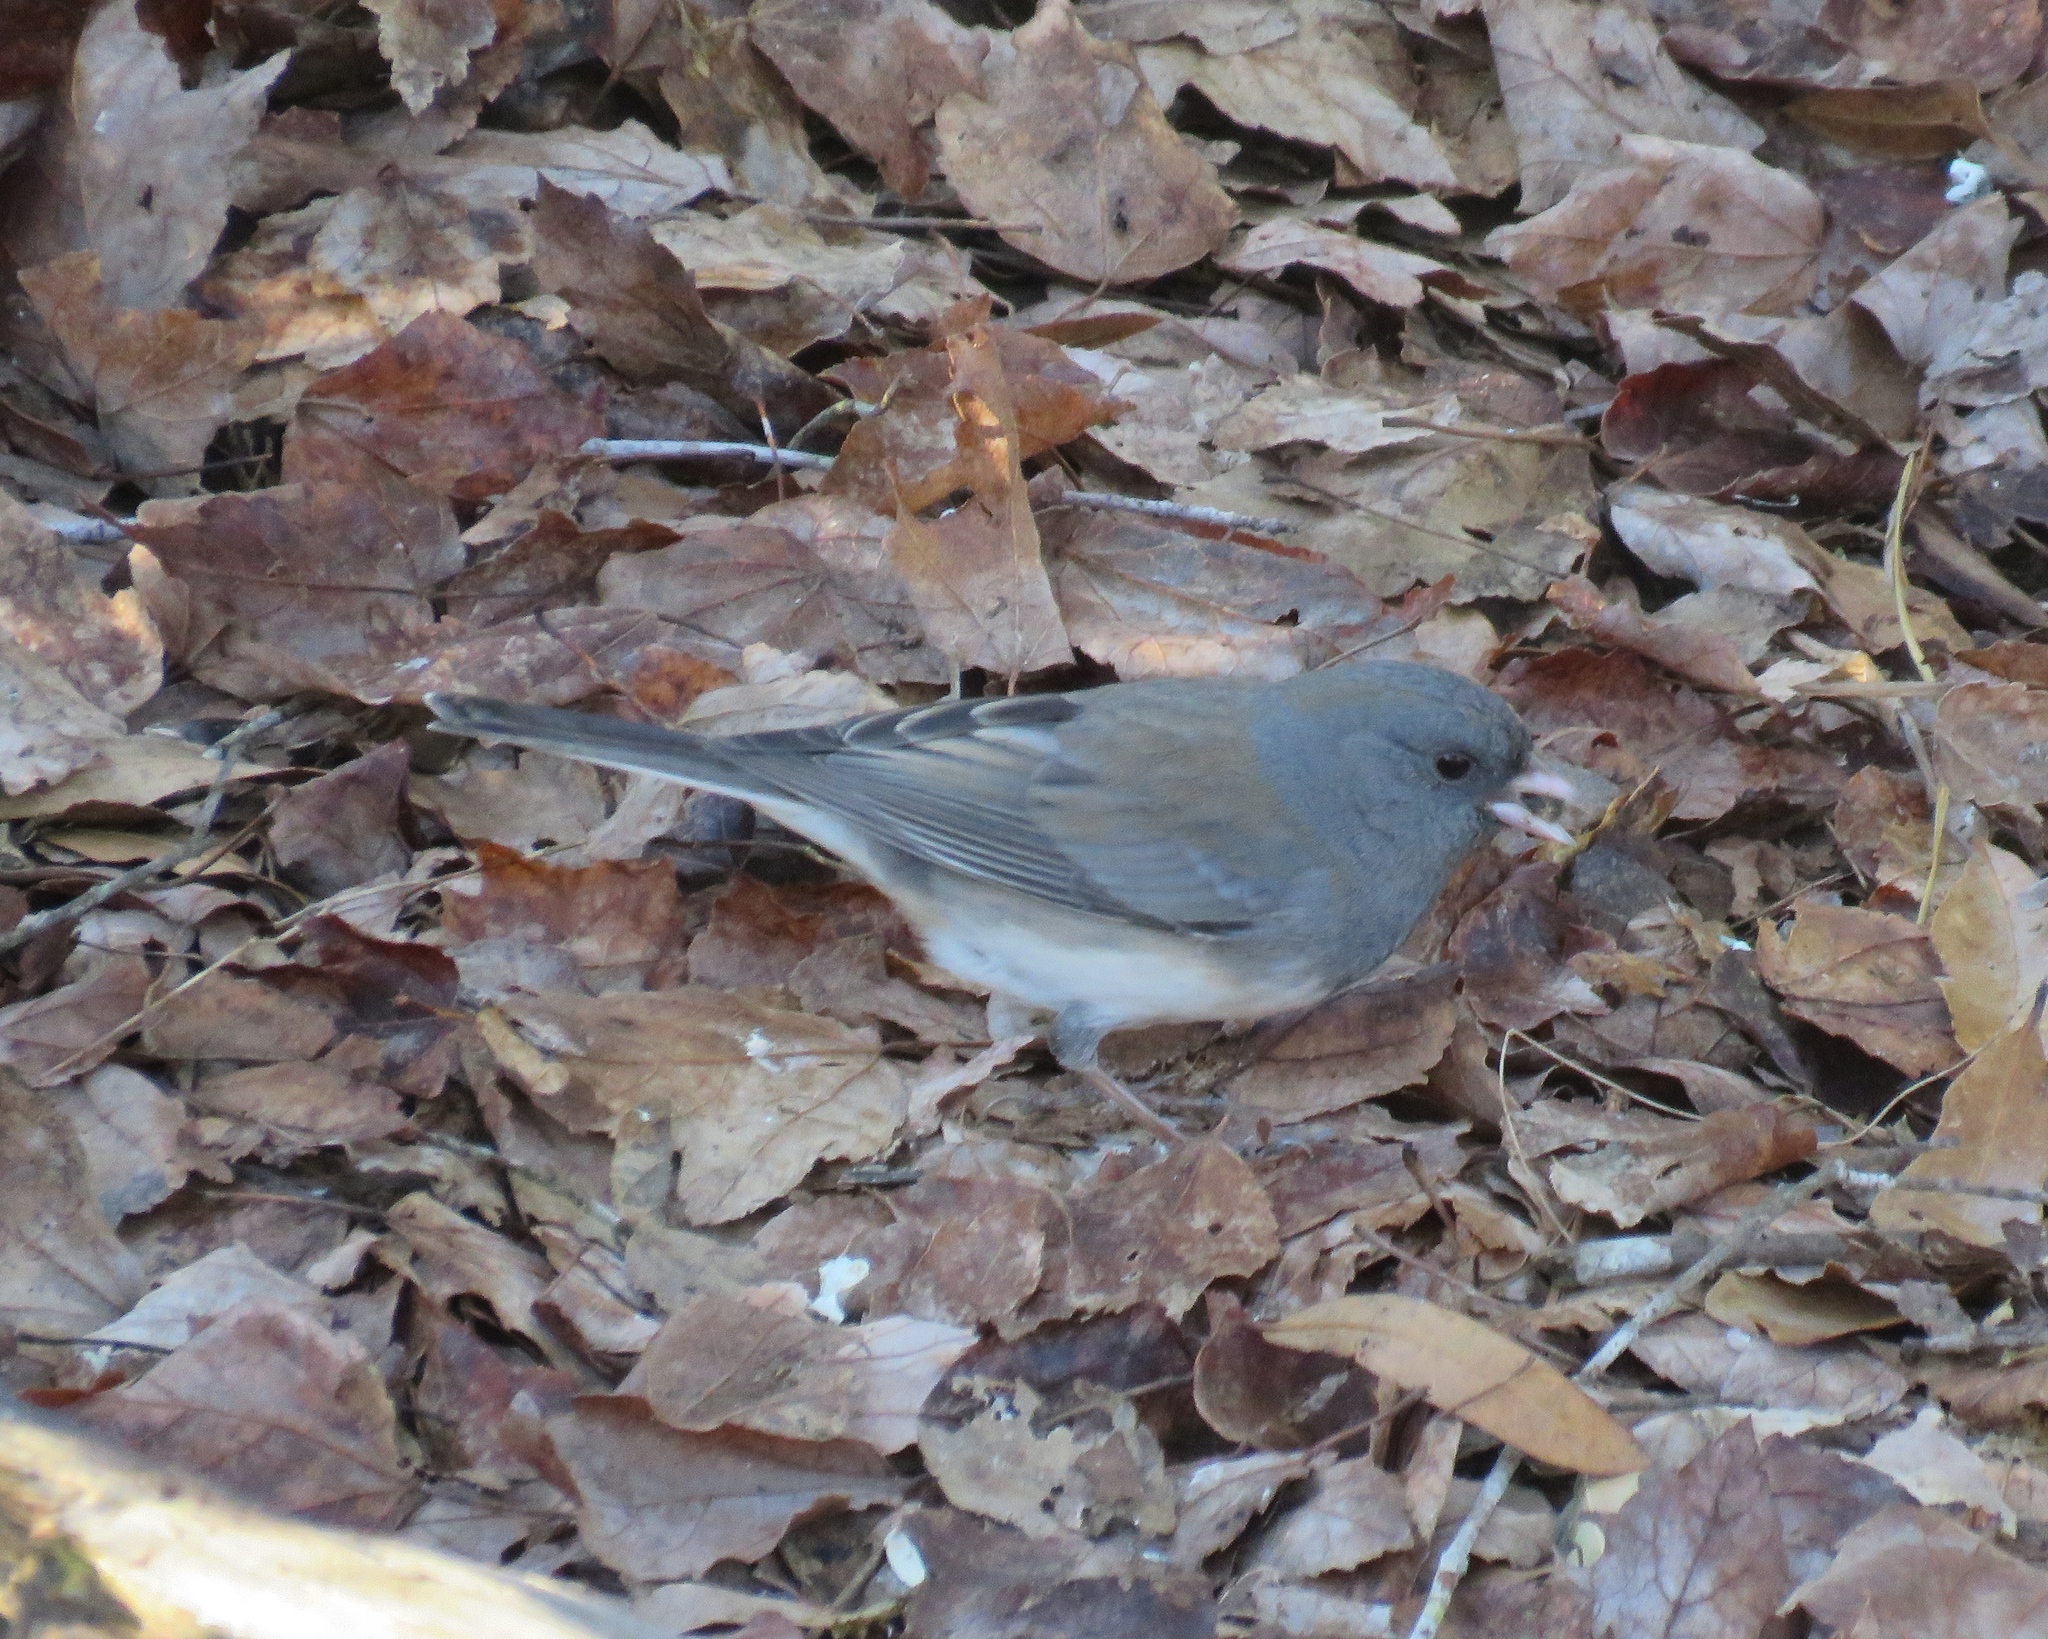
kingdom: Animalia
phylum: Chordata
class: Aves
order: Passeriformes
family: Passerellidae
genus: Junco
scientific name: Junco hyemalis
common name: Dark-eyed junco
